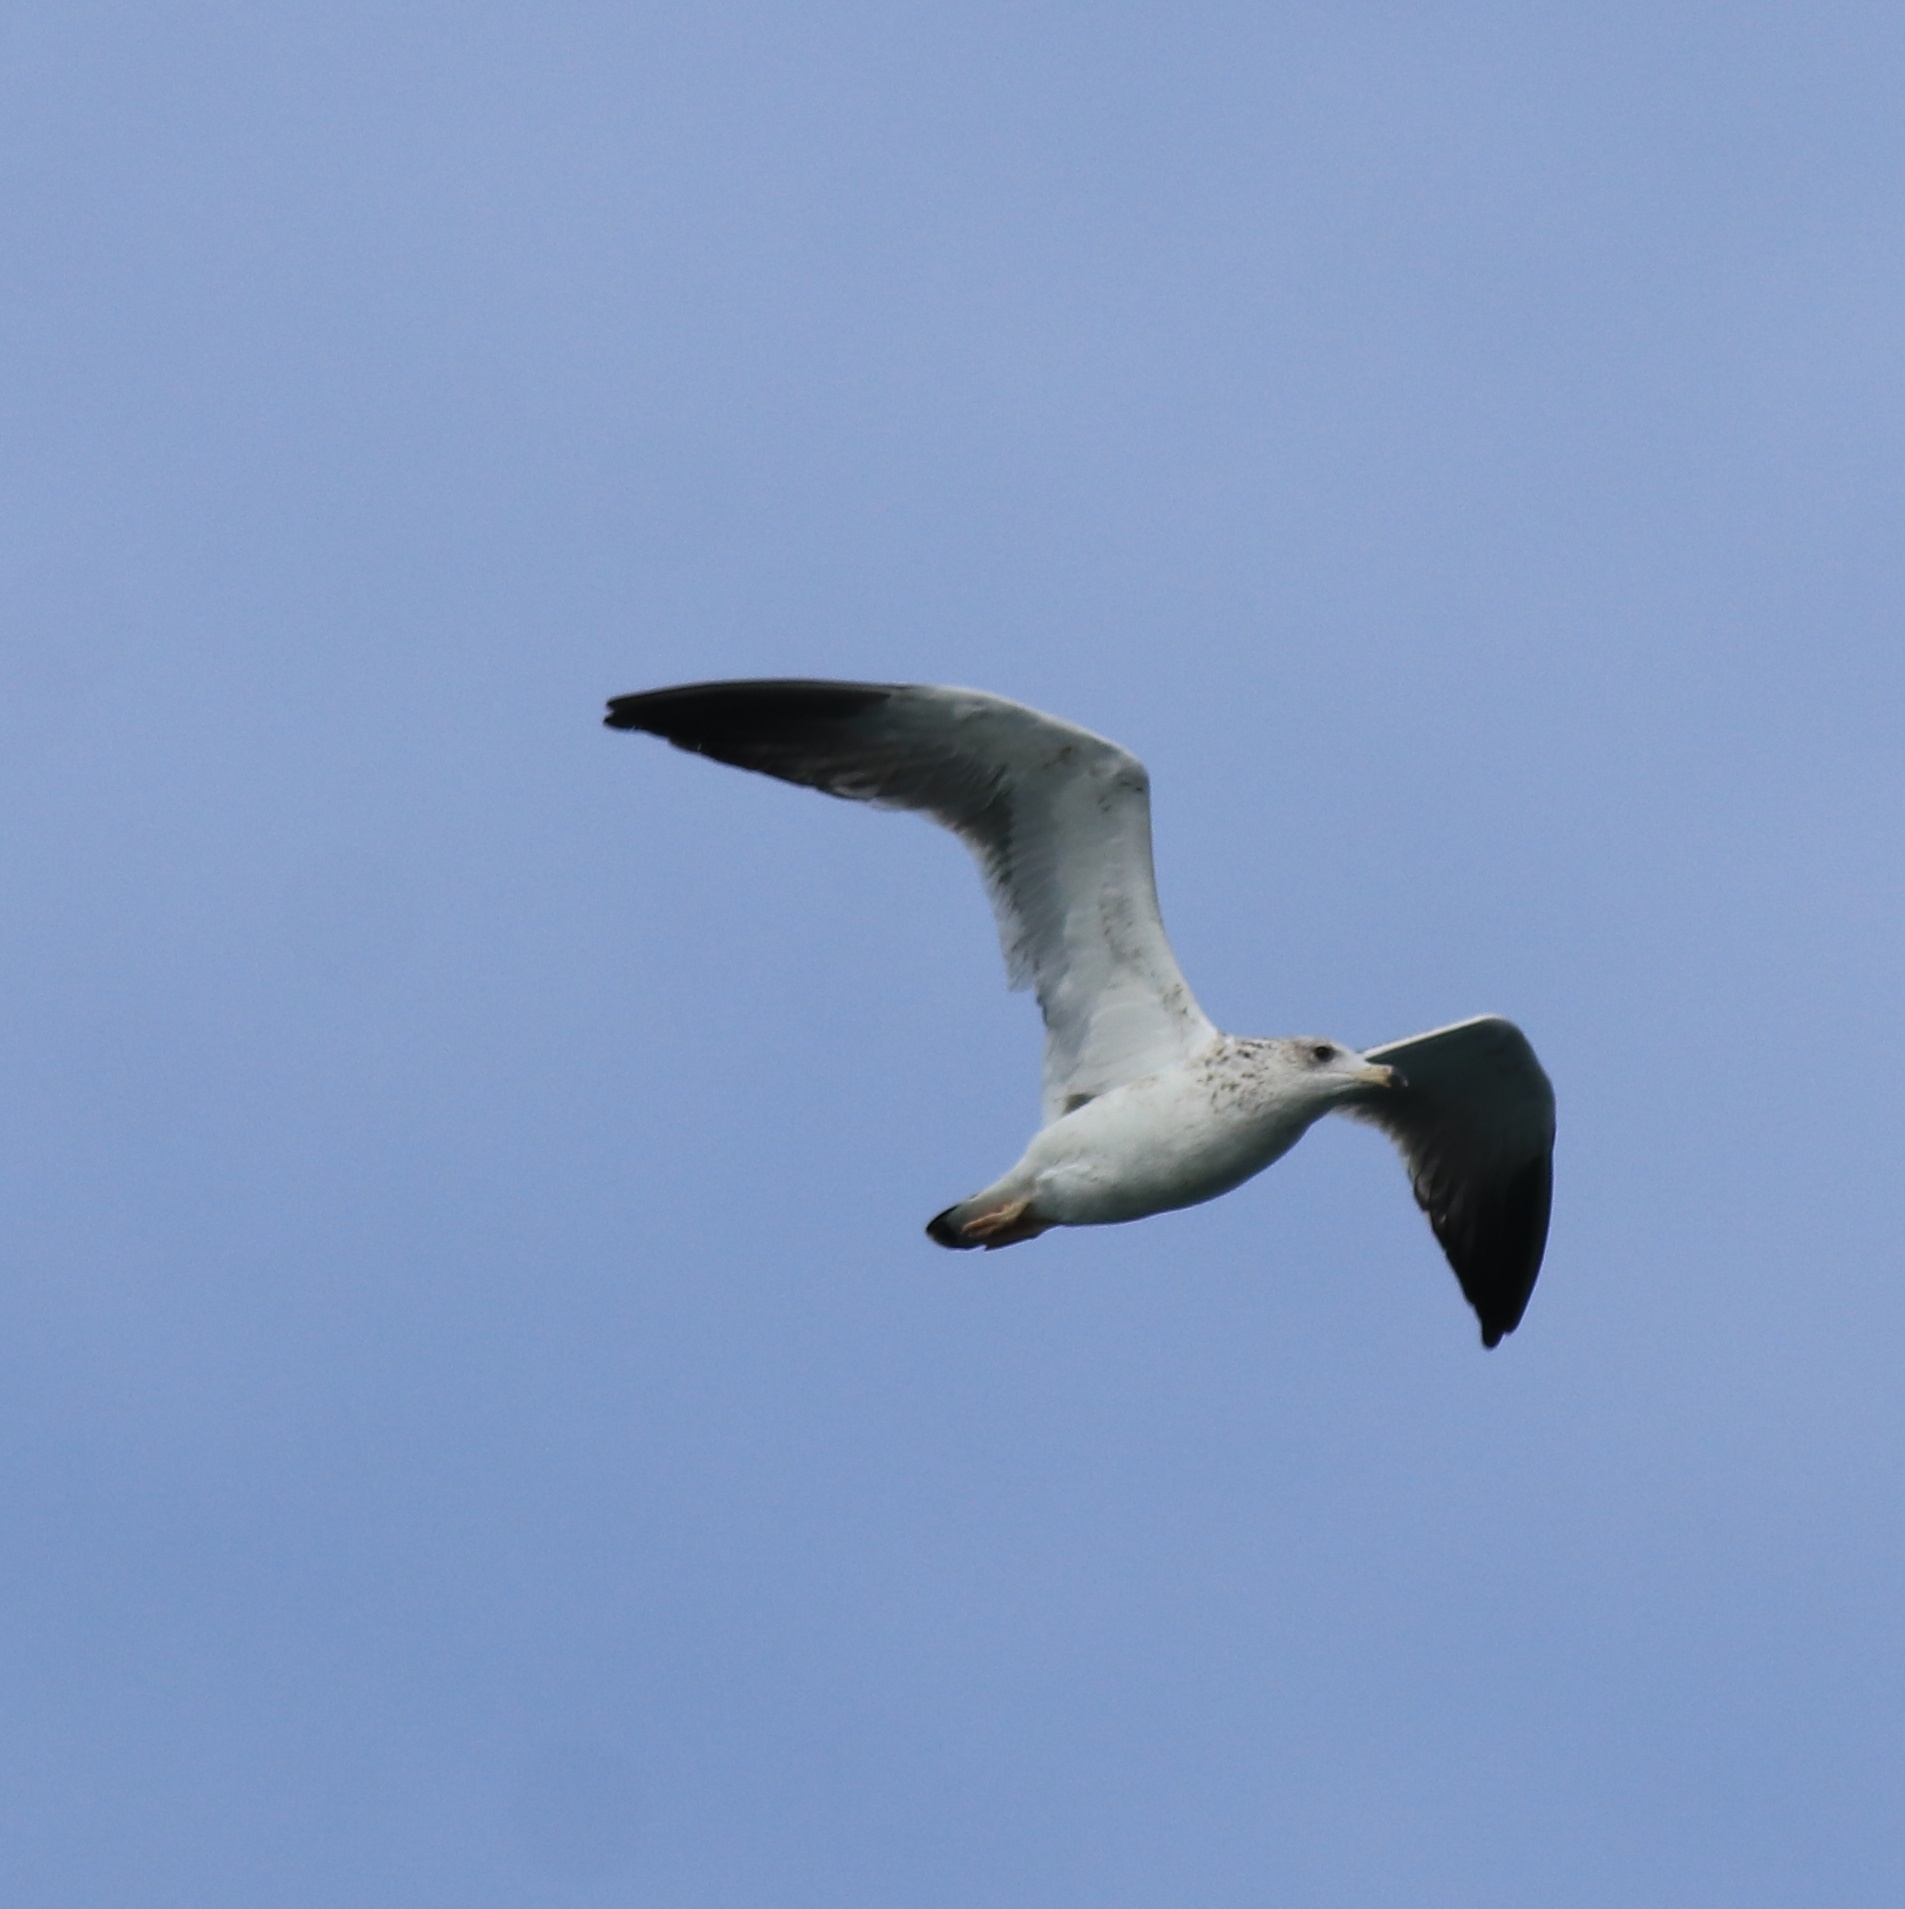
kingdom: Animalia
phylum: Chordata
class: Aves
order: Charadriiformes
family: Laridae
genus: Larus
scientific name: Larus fuscus
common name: Lesser black-backed gull
